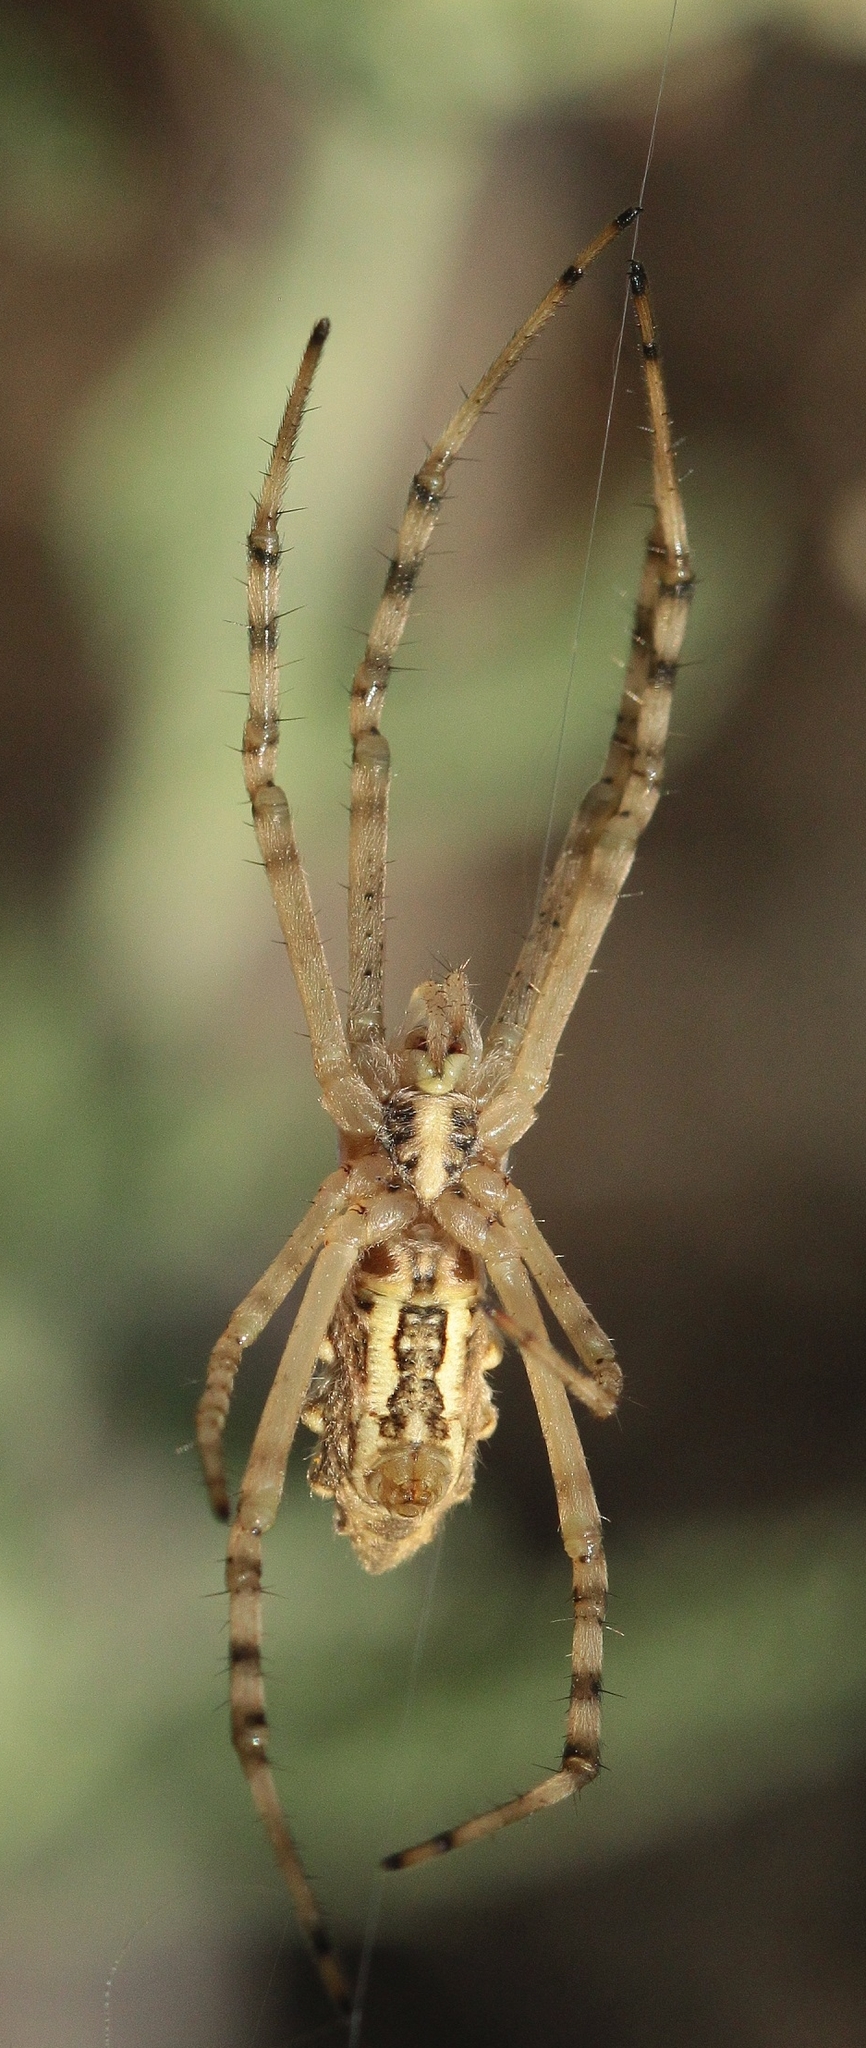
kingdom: Animalia
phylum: Arthropoda
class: Arachnida
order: Araneae
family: Araneidae
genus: Argiope
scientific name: Argiope lobata
